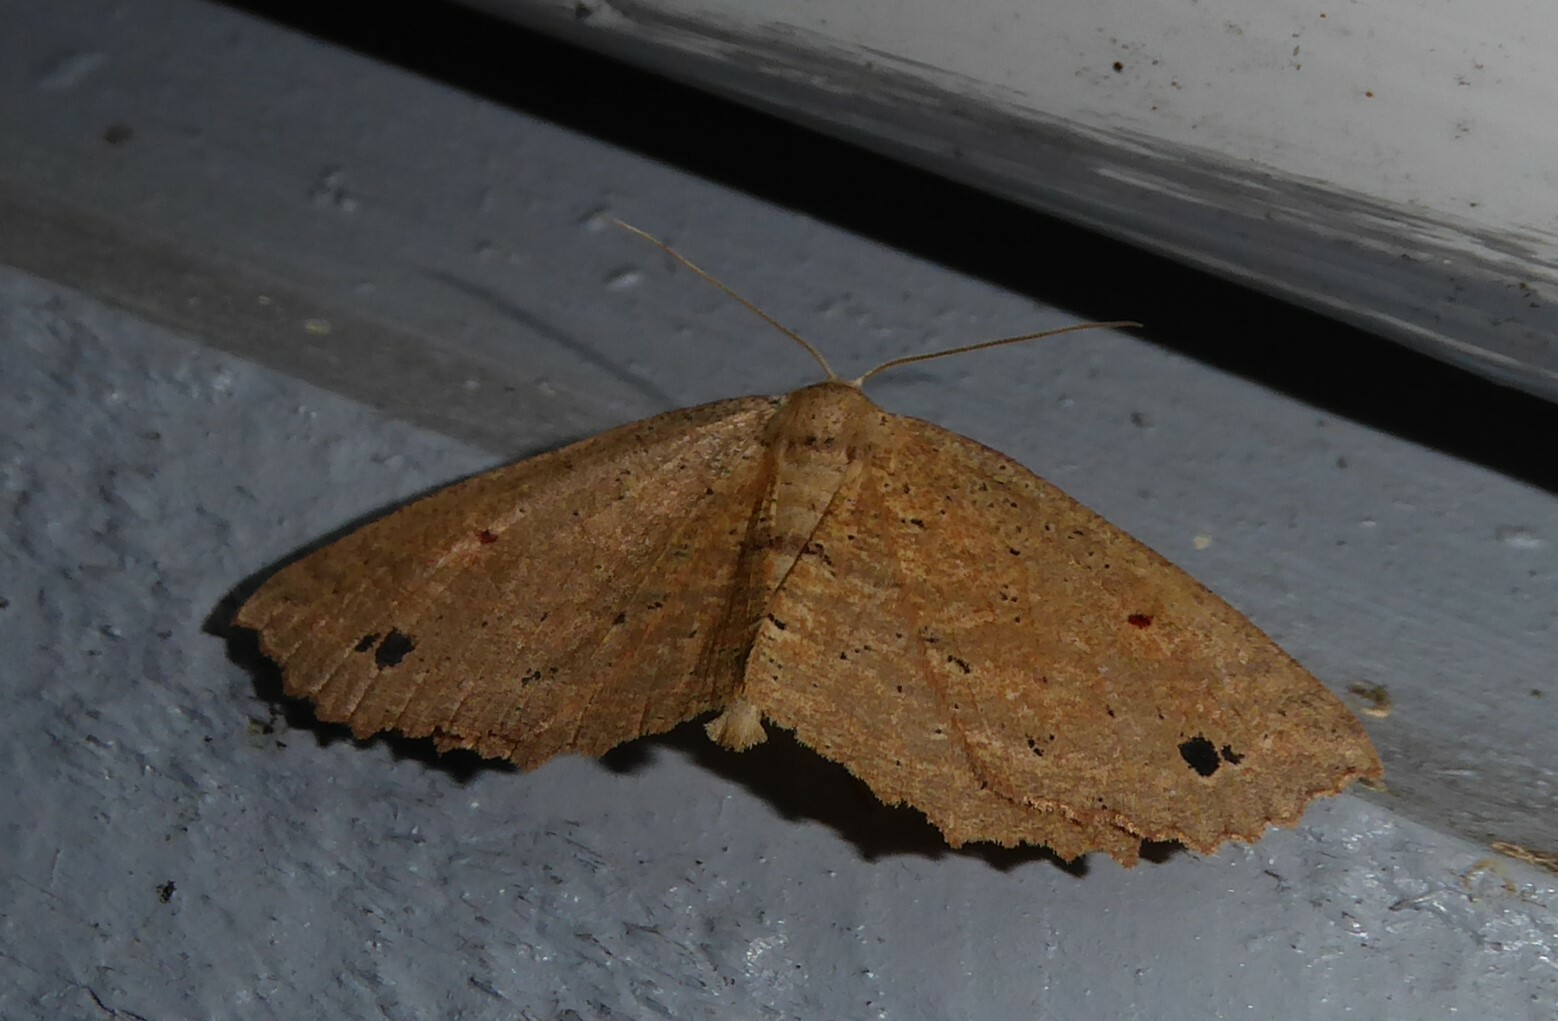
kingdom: Animalia
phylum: Arthropoda
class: Insecta
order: Lepidoptera
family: Geometridae
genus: Xyridacma
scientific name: Xyridacma veronicae
